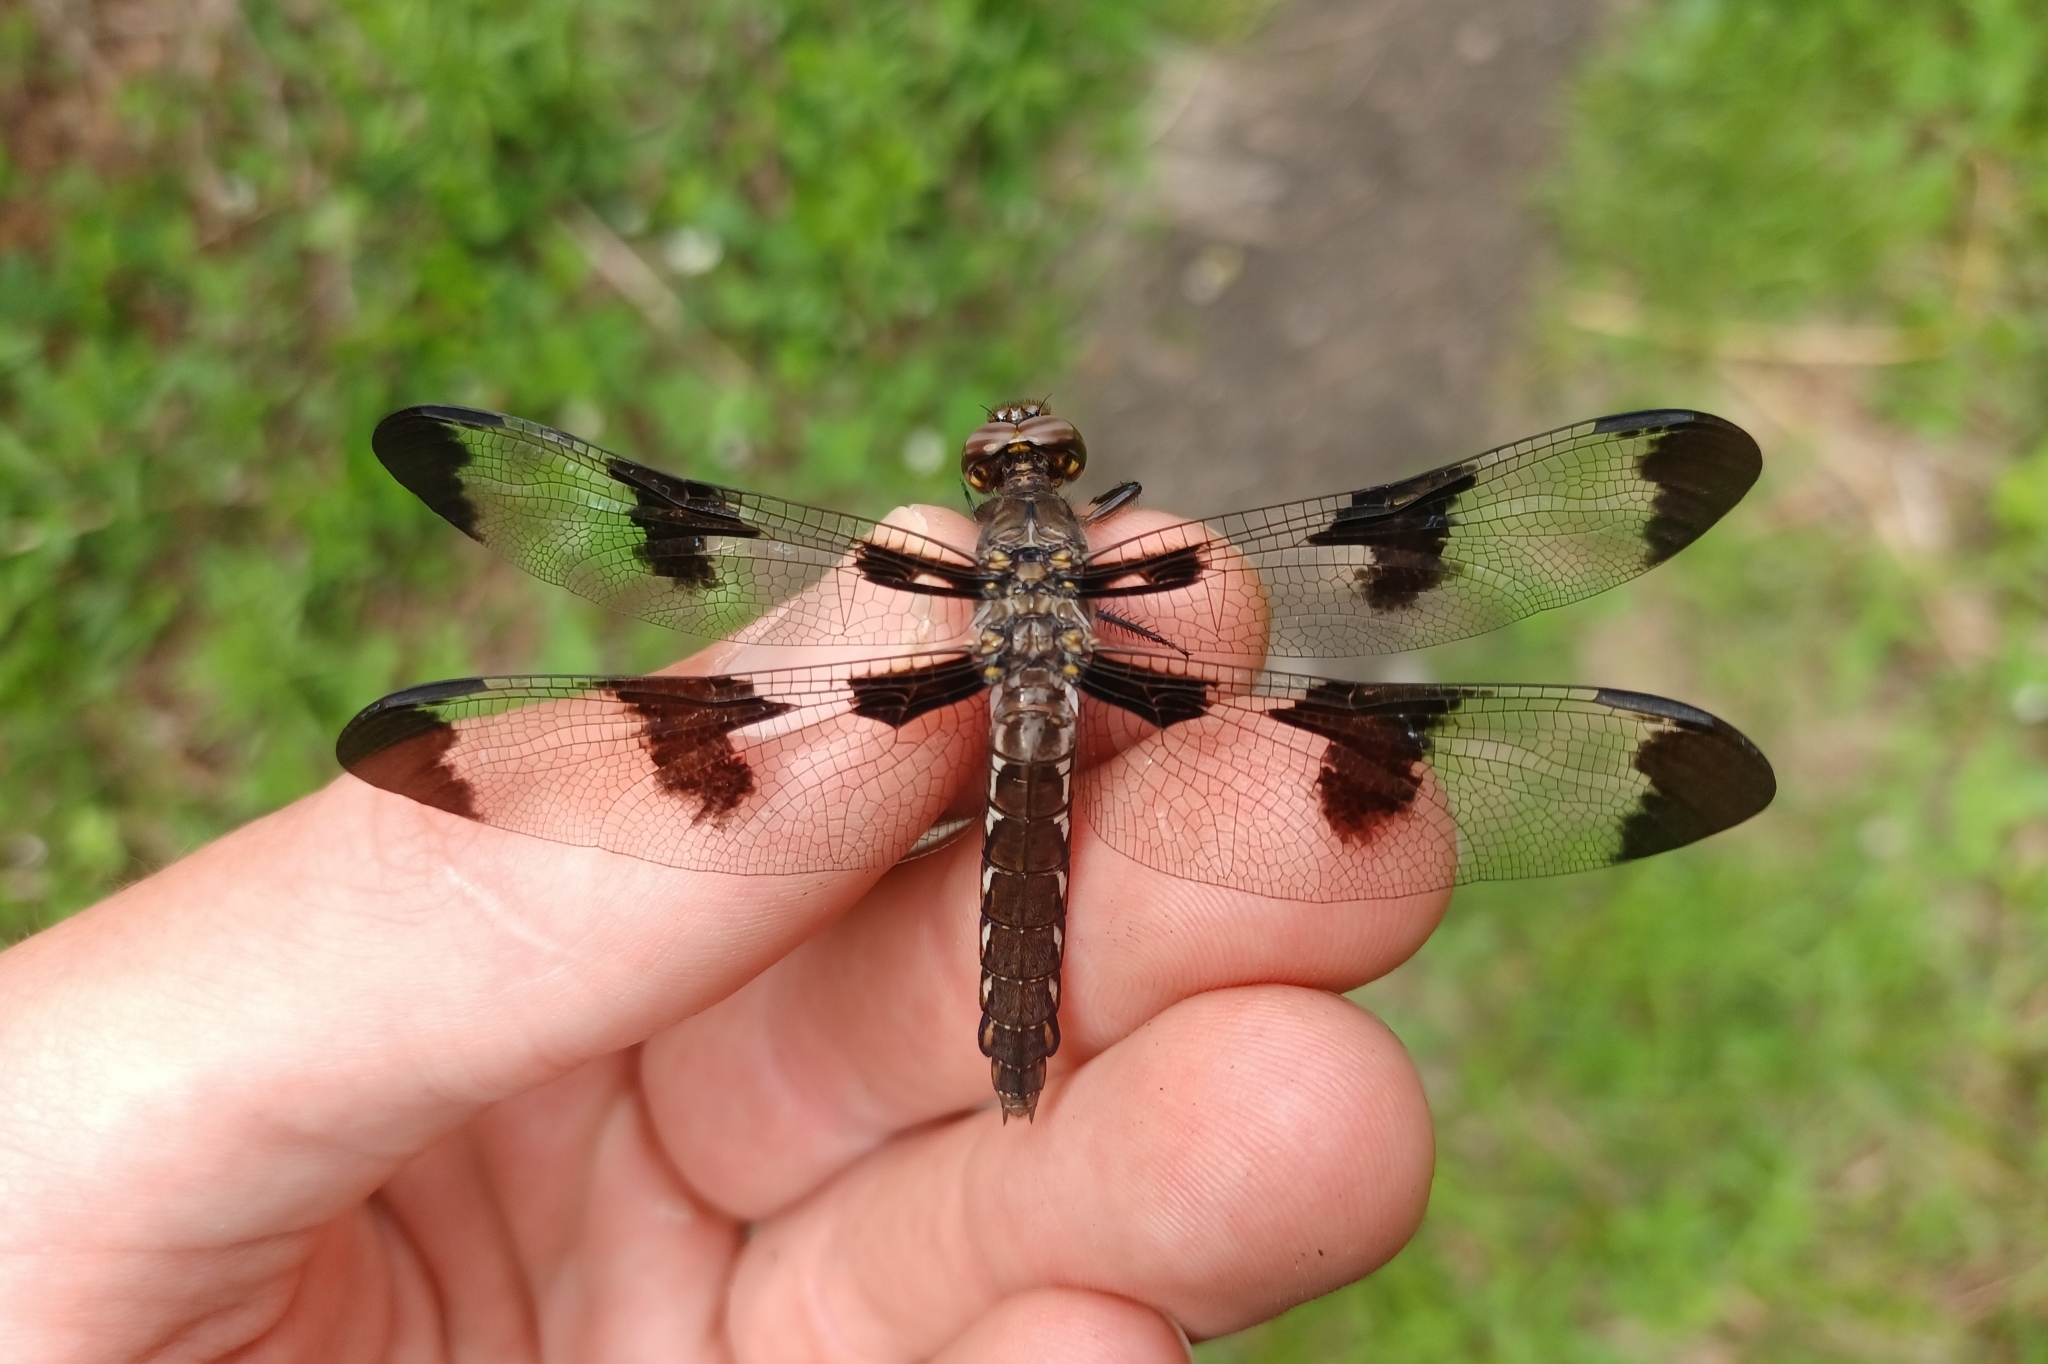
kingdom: Animalia
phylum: Arthropoda
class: Insecta
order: Odonata
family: Libellulidae
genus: Plathemis
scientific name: Plathemis lydia
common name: Common whitetail
